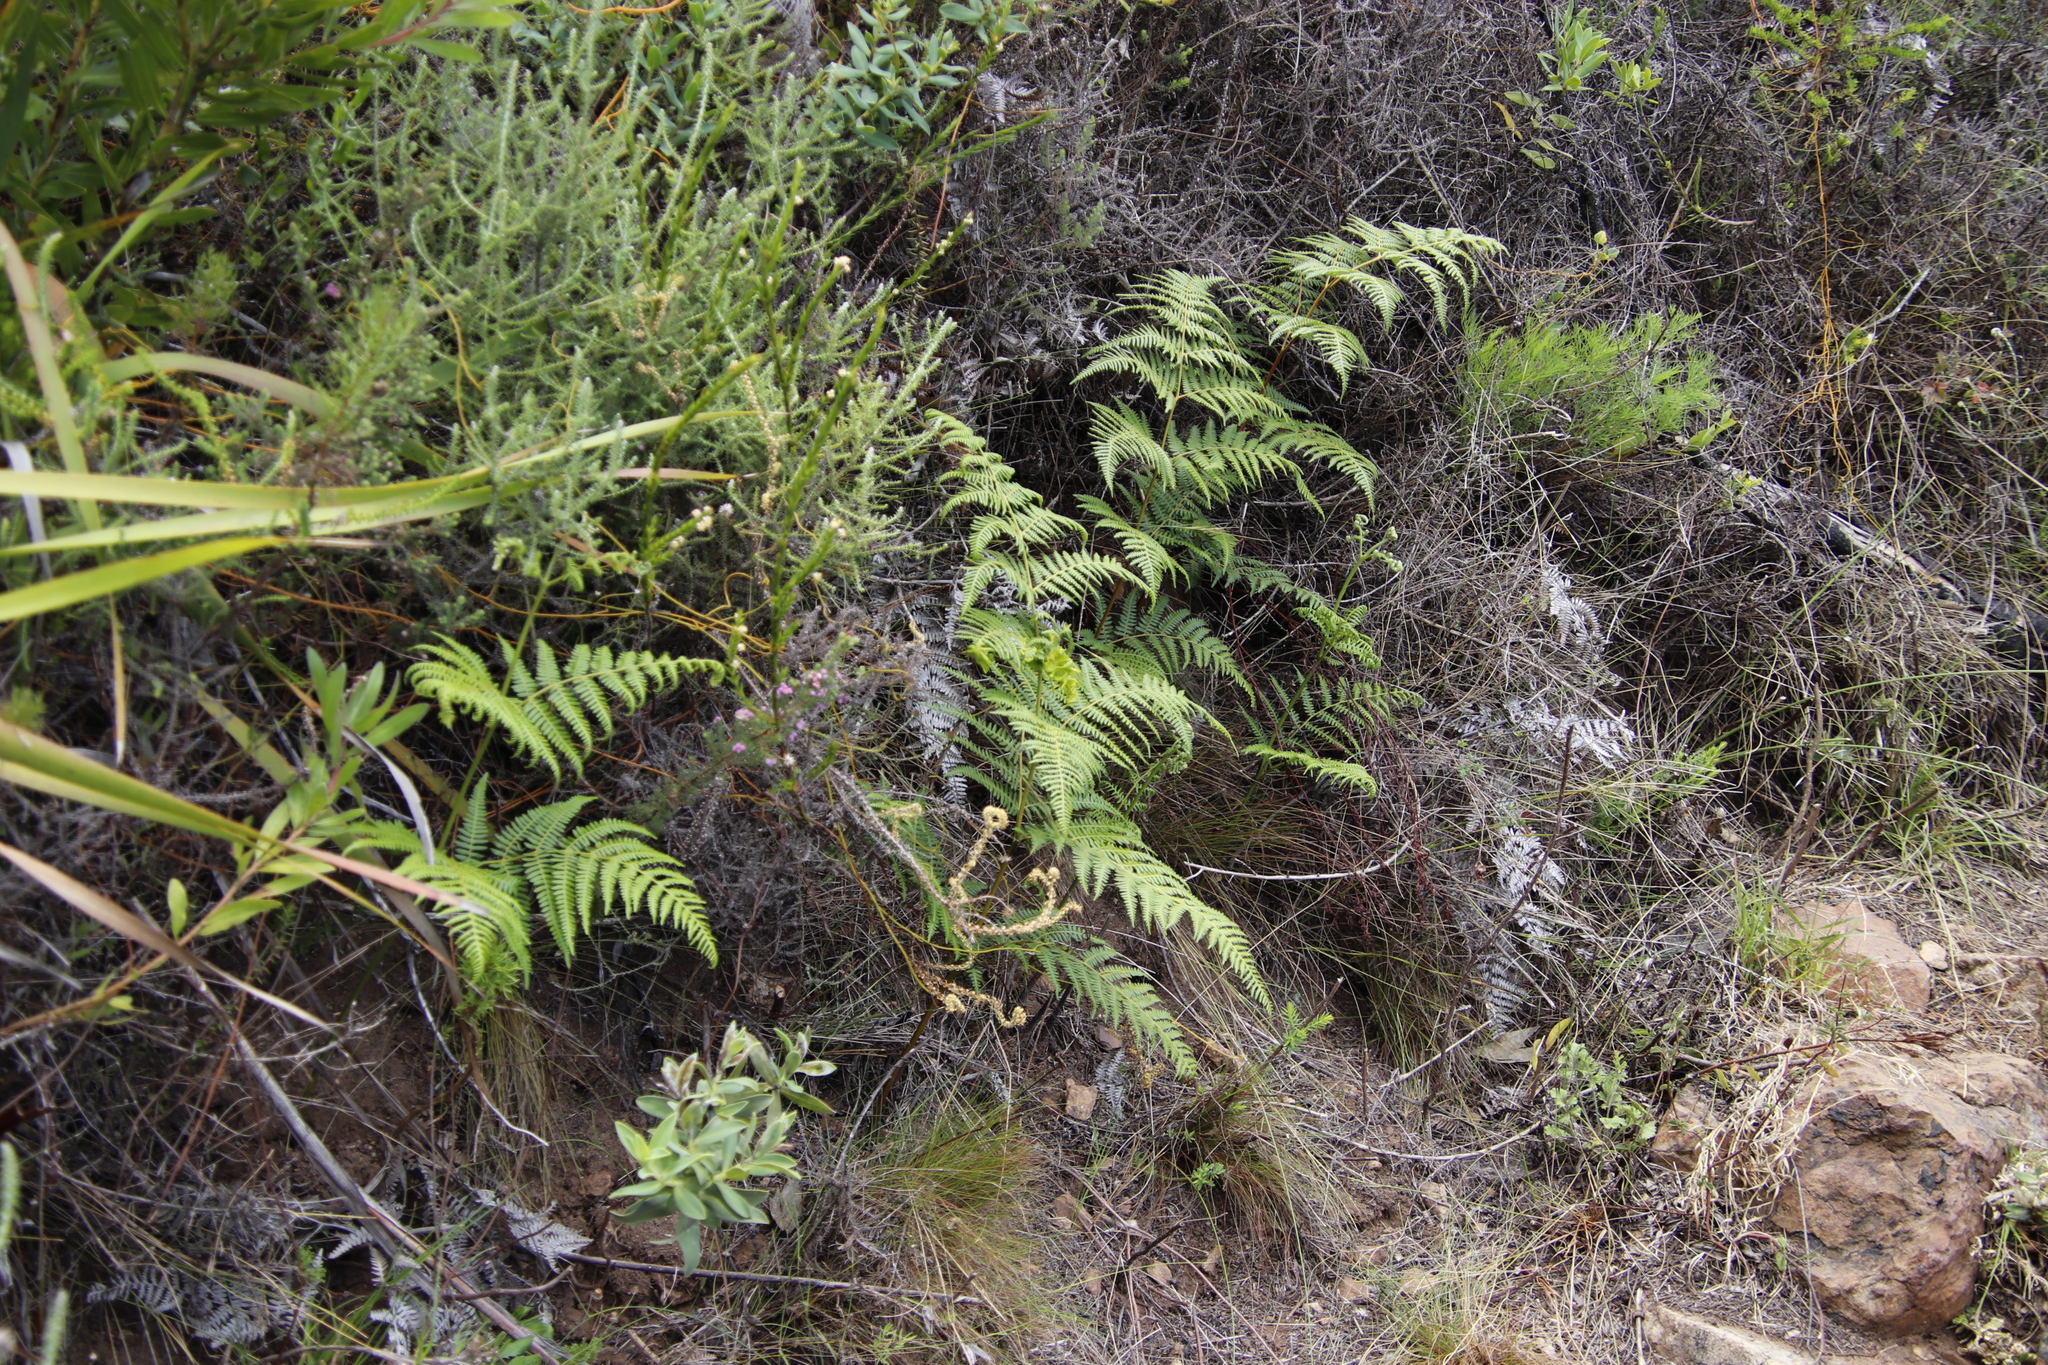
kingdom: Plantae
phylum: Tracheophyta
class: Polypodiopsida
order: Polypodiales
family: Dennstaedtiaceae
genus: Pteridium
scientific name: Pteridium aquilinum
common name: Bracken
